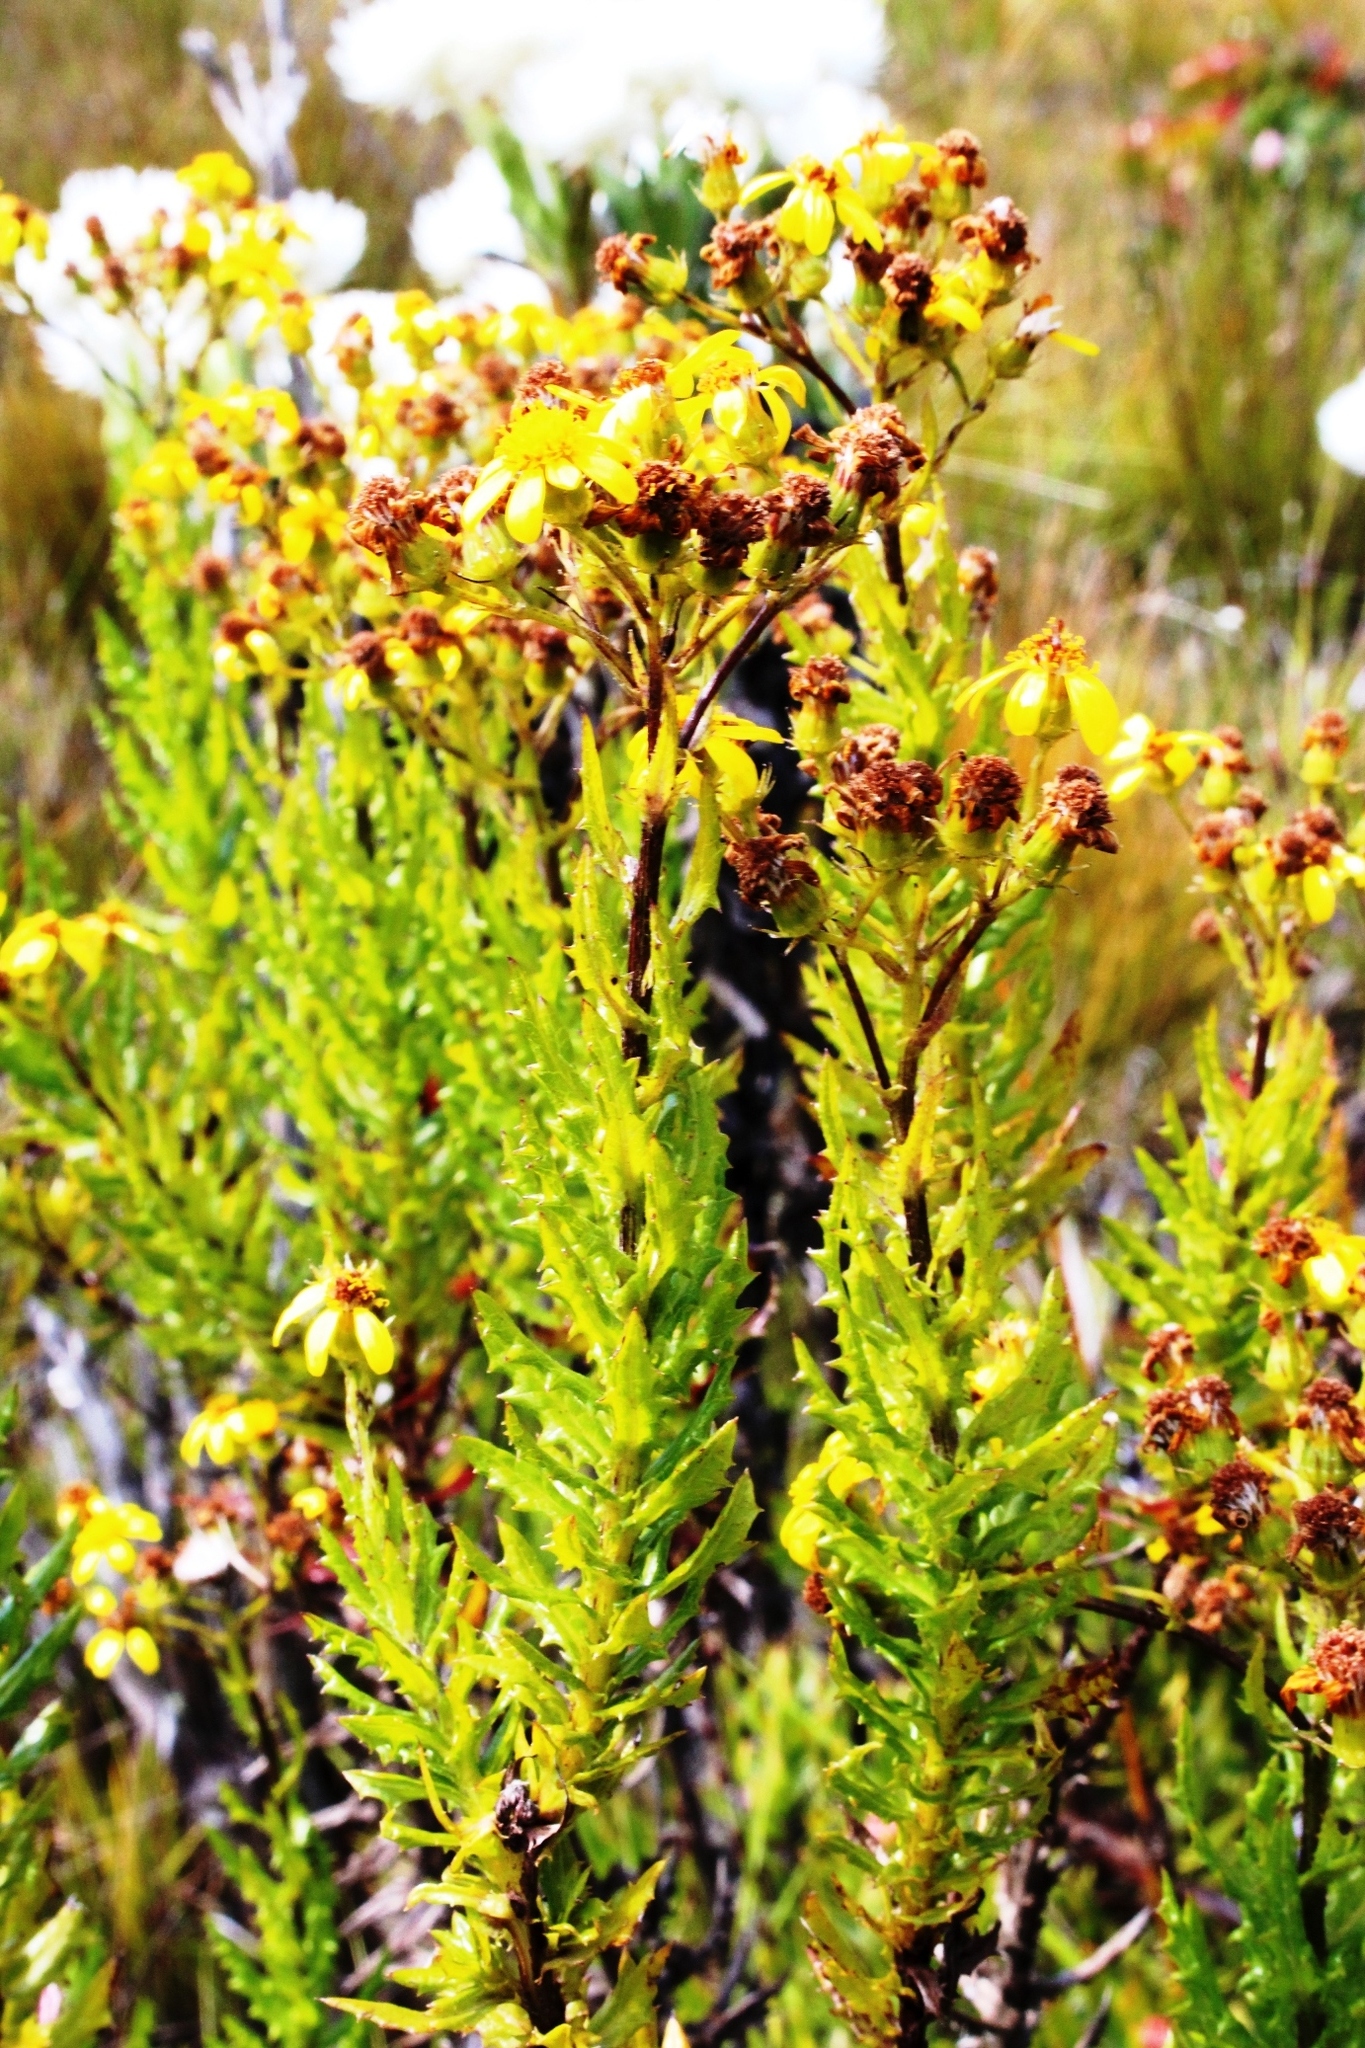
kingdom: Plantae
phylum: Tracheophyta
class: Magnoliopsida
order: Asterales
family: Asteraceae
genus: Senecio
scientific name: Senecio aquifoliaceus
